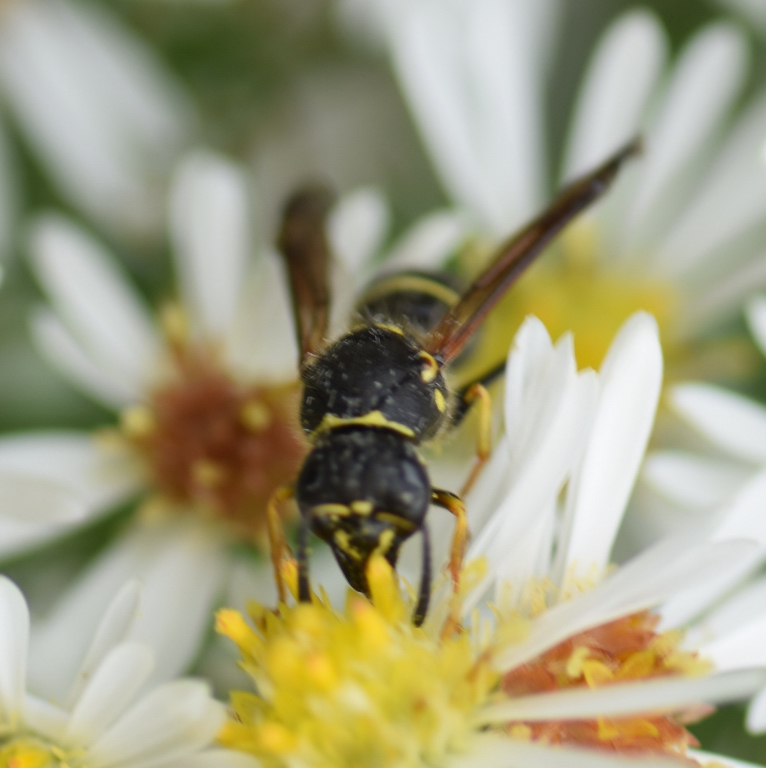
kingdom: Animalia
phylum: Arthropoda
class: Insecta
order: Hymenoptera
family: Vespidae
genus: Ancistrocerus
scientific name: Ancistrocerus catskill
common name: Vespid wasp
